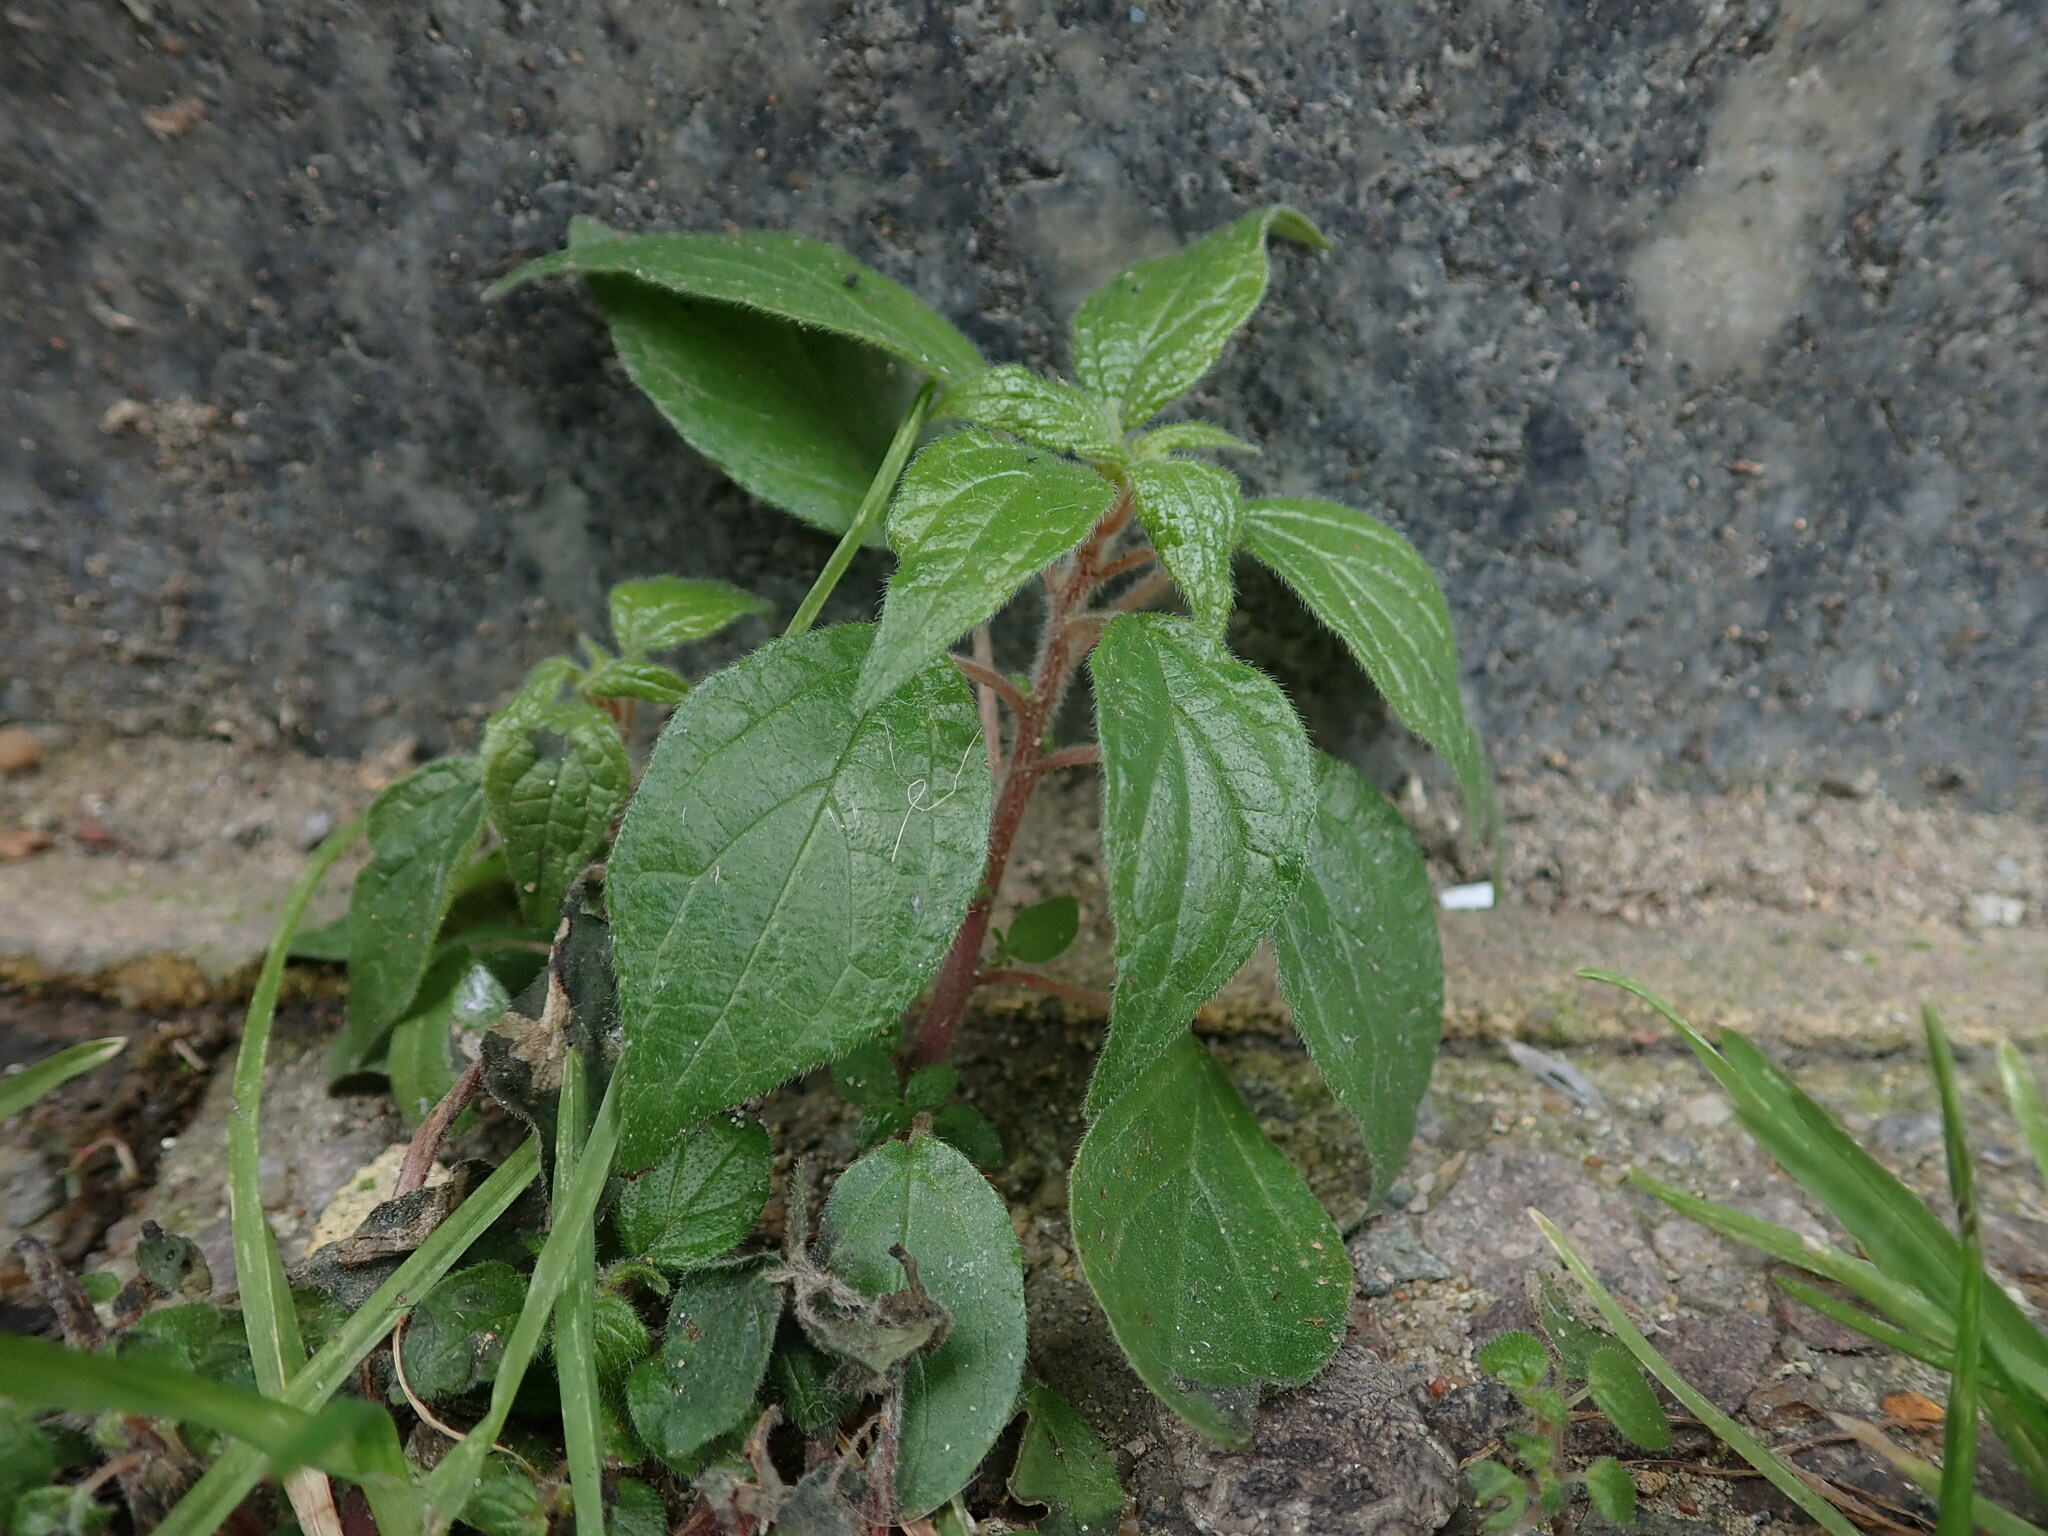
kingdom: Plantae
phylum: Tracheophyta
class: Magnoliopsida
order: Rosales
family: Urticaceae
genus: Parietaria
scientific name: Parietaria judaica
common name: Pellitory-of-the-wall
